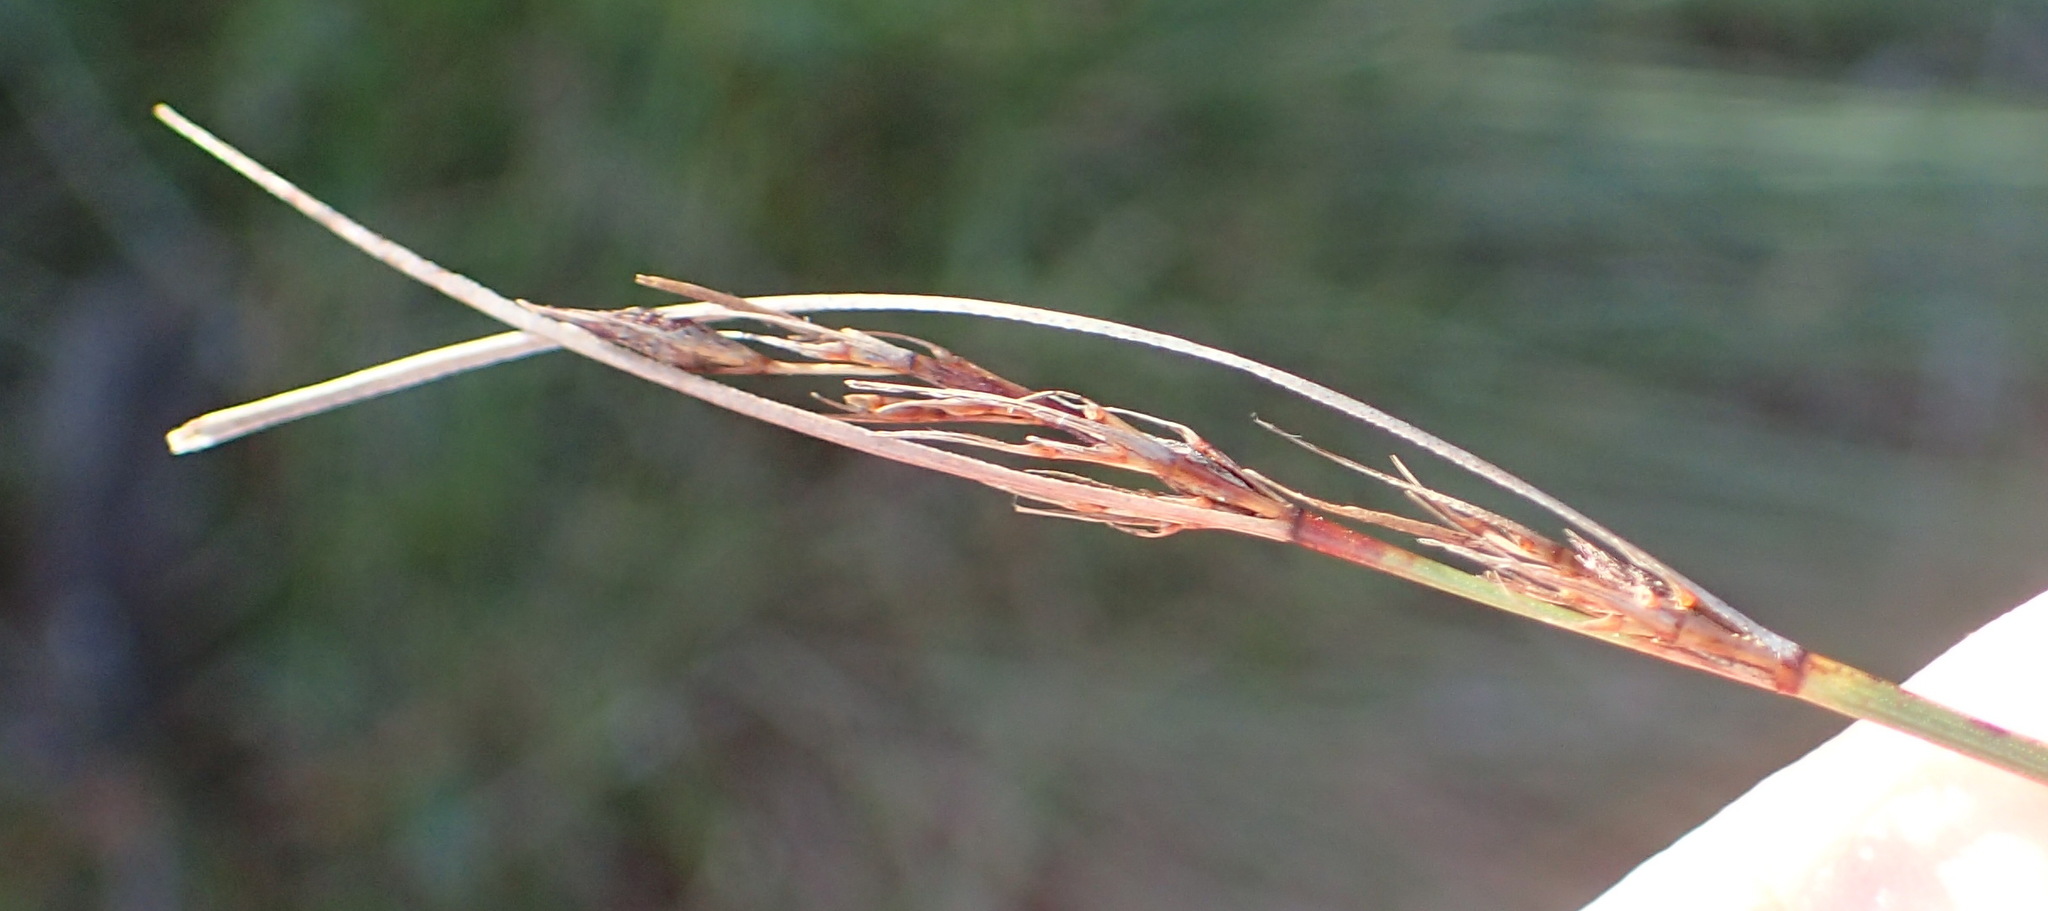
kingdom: Plantae
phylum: Tracheophyta
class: Liliopsida
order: Poales
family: Cyperaceae
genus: Schoenus
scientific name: Schoenus graciliculmis
